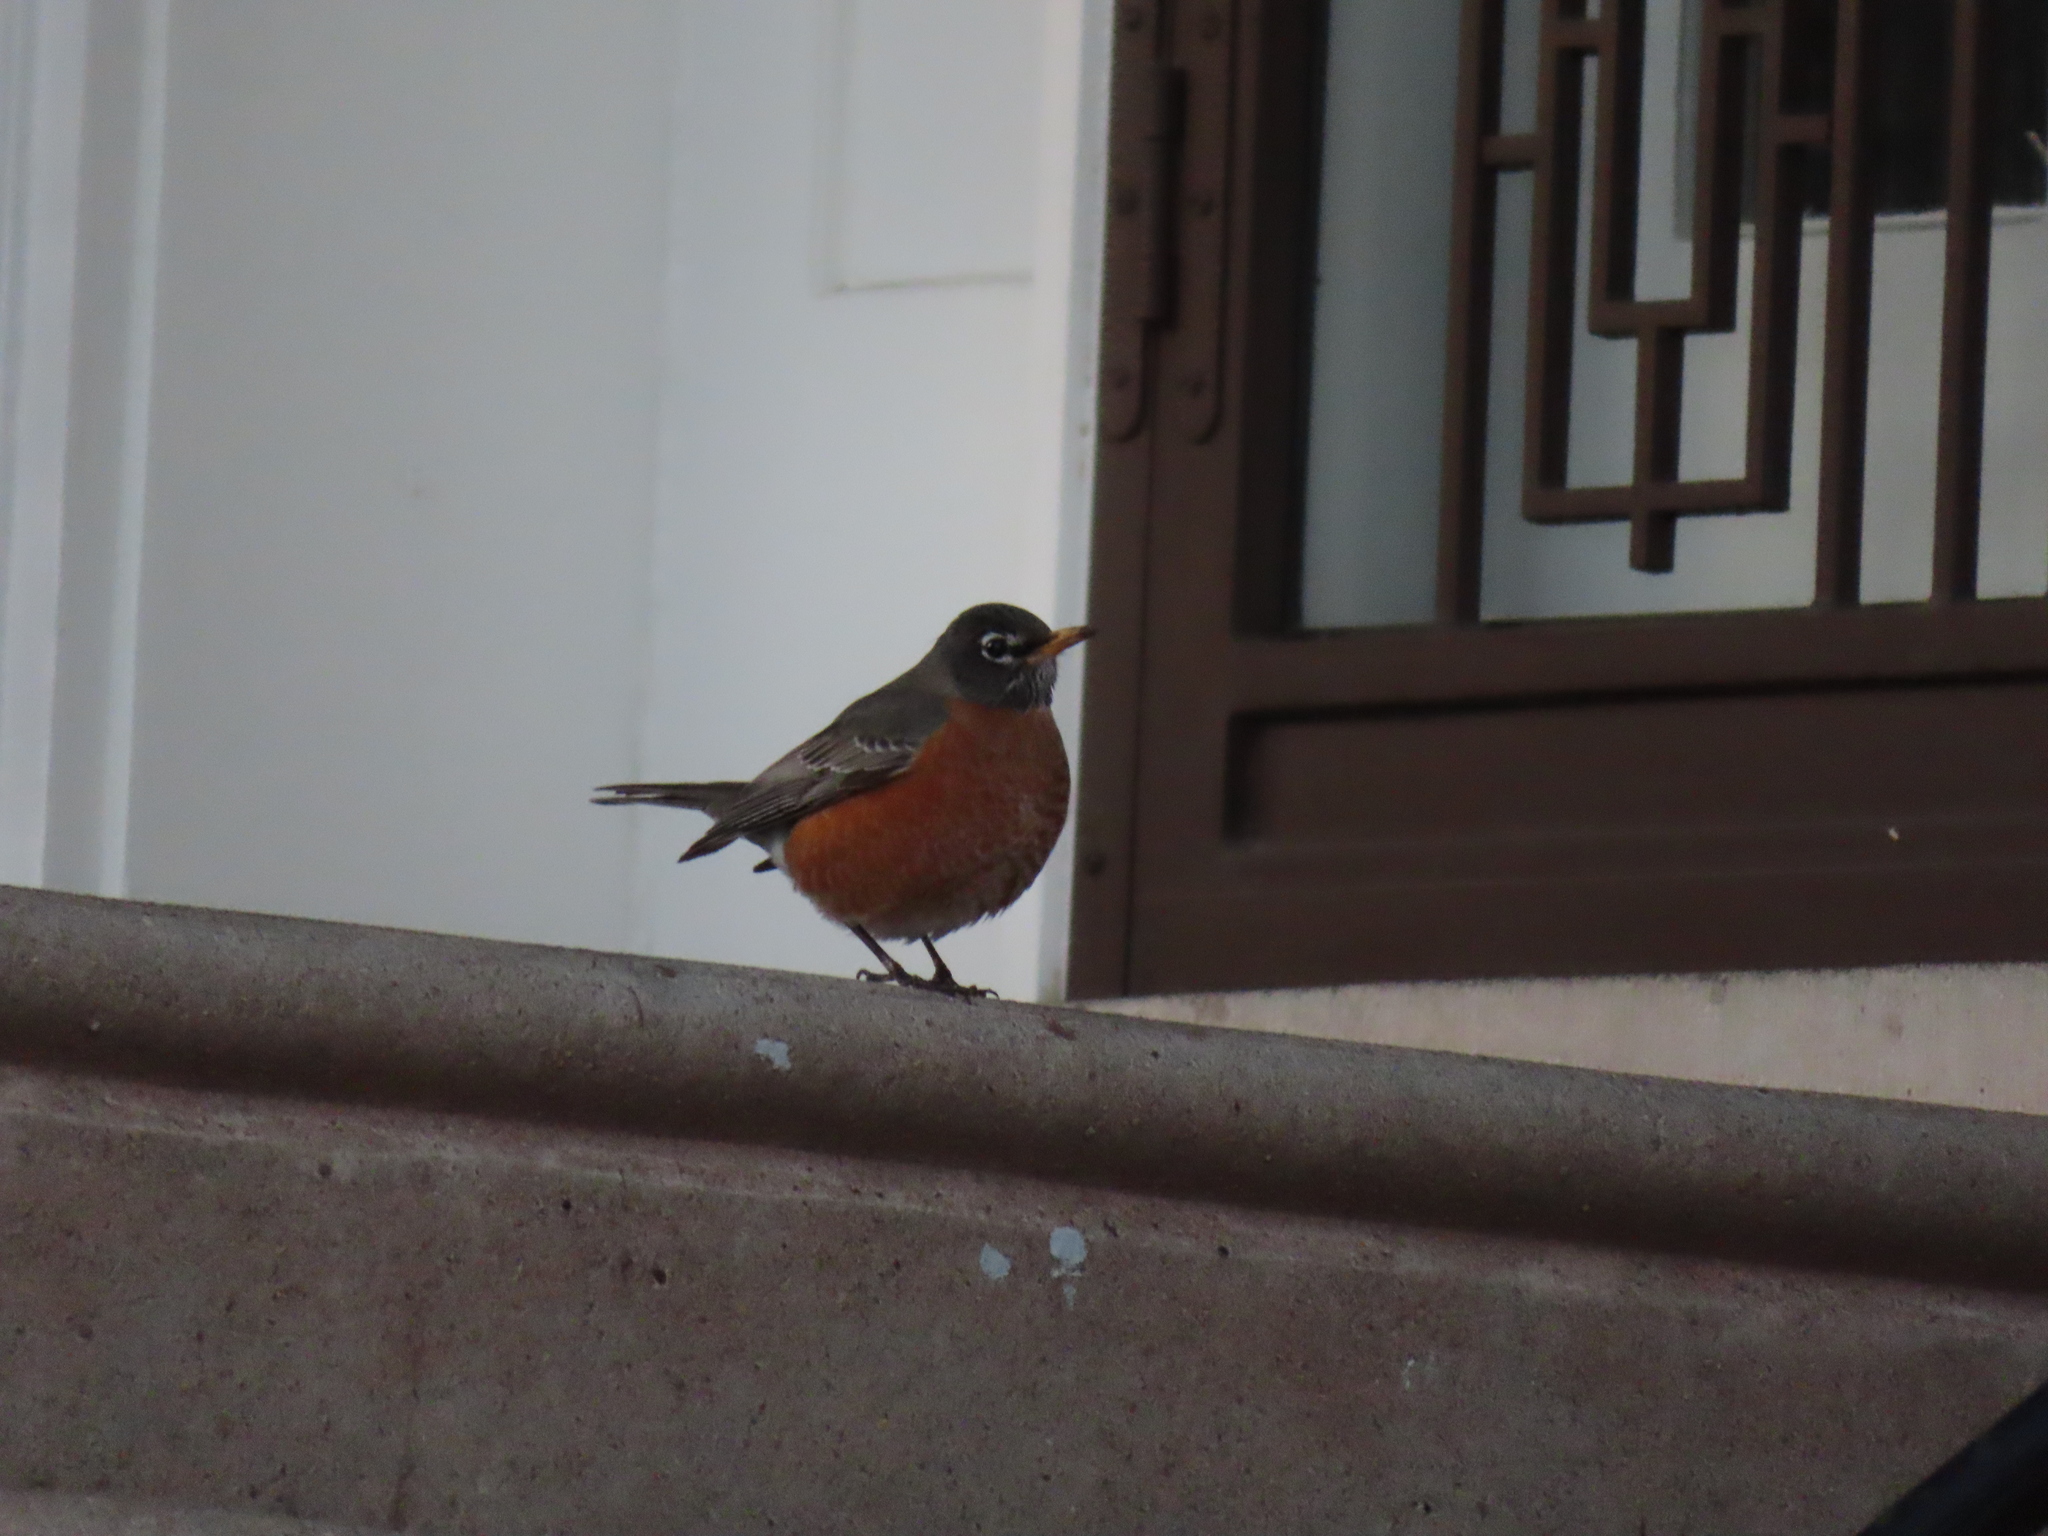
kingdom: Animalia
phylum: Chordata
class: Aves
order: Passeriformes
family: Turdidae
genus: Turdus
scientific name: Turdus migratorius
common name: American robin
